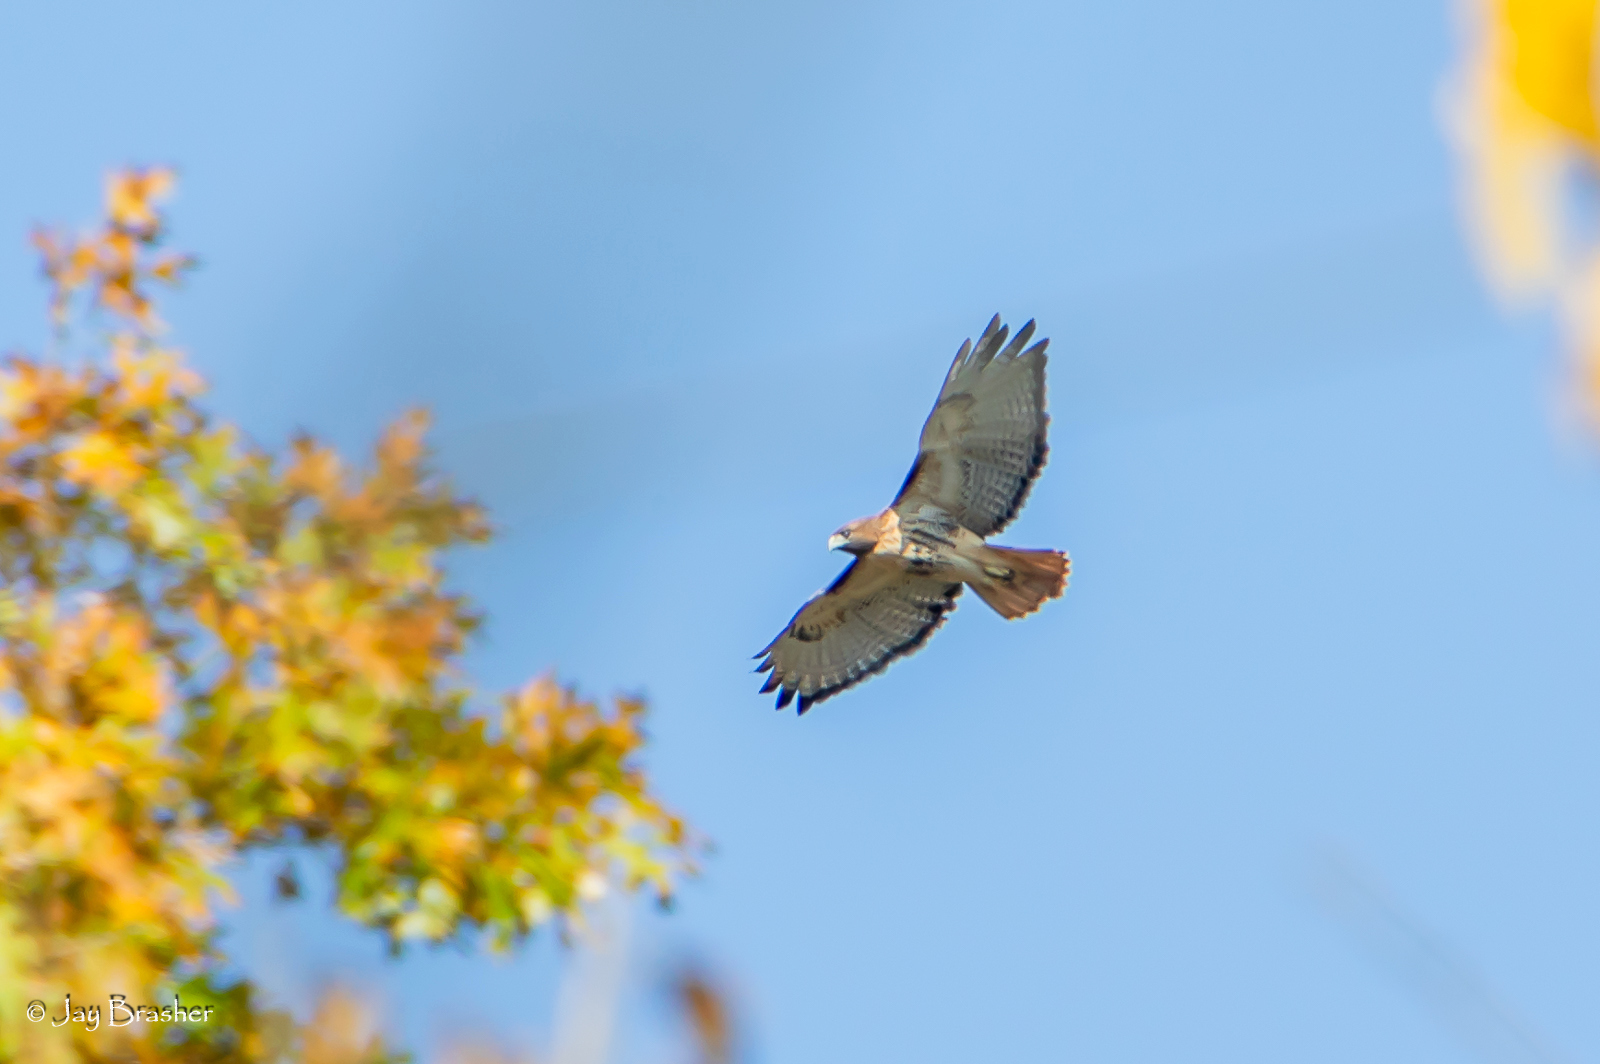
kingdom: Animalia
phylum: Chordata
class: Aves
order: Accipitriformes
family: Accipitridae
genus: Buteo
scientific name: Buteo jamaicensis
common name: Red-tailed hawk
